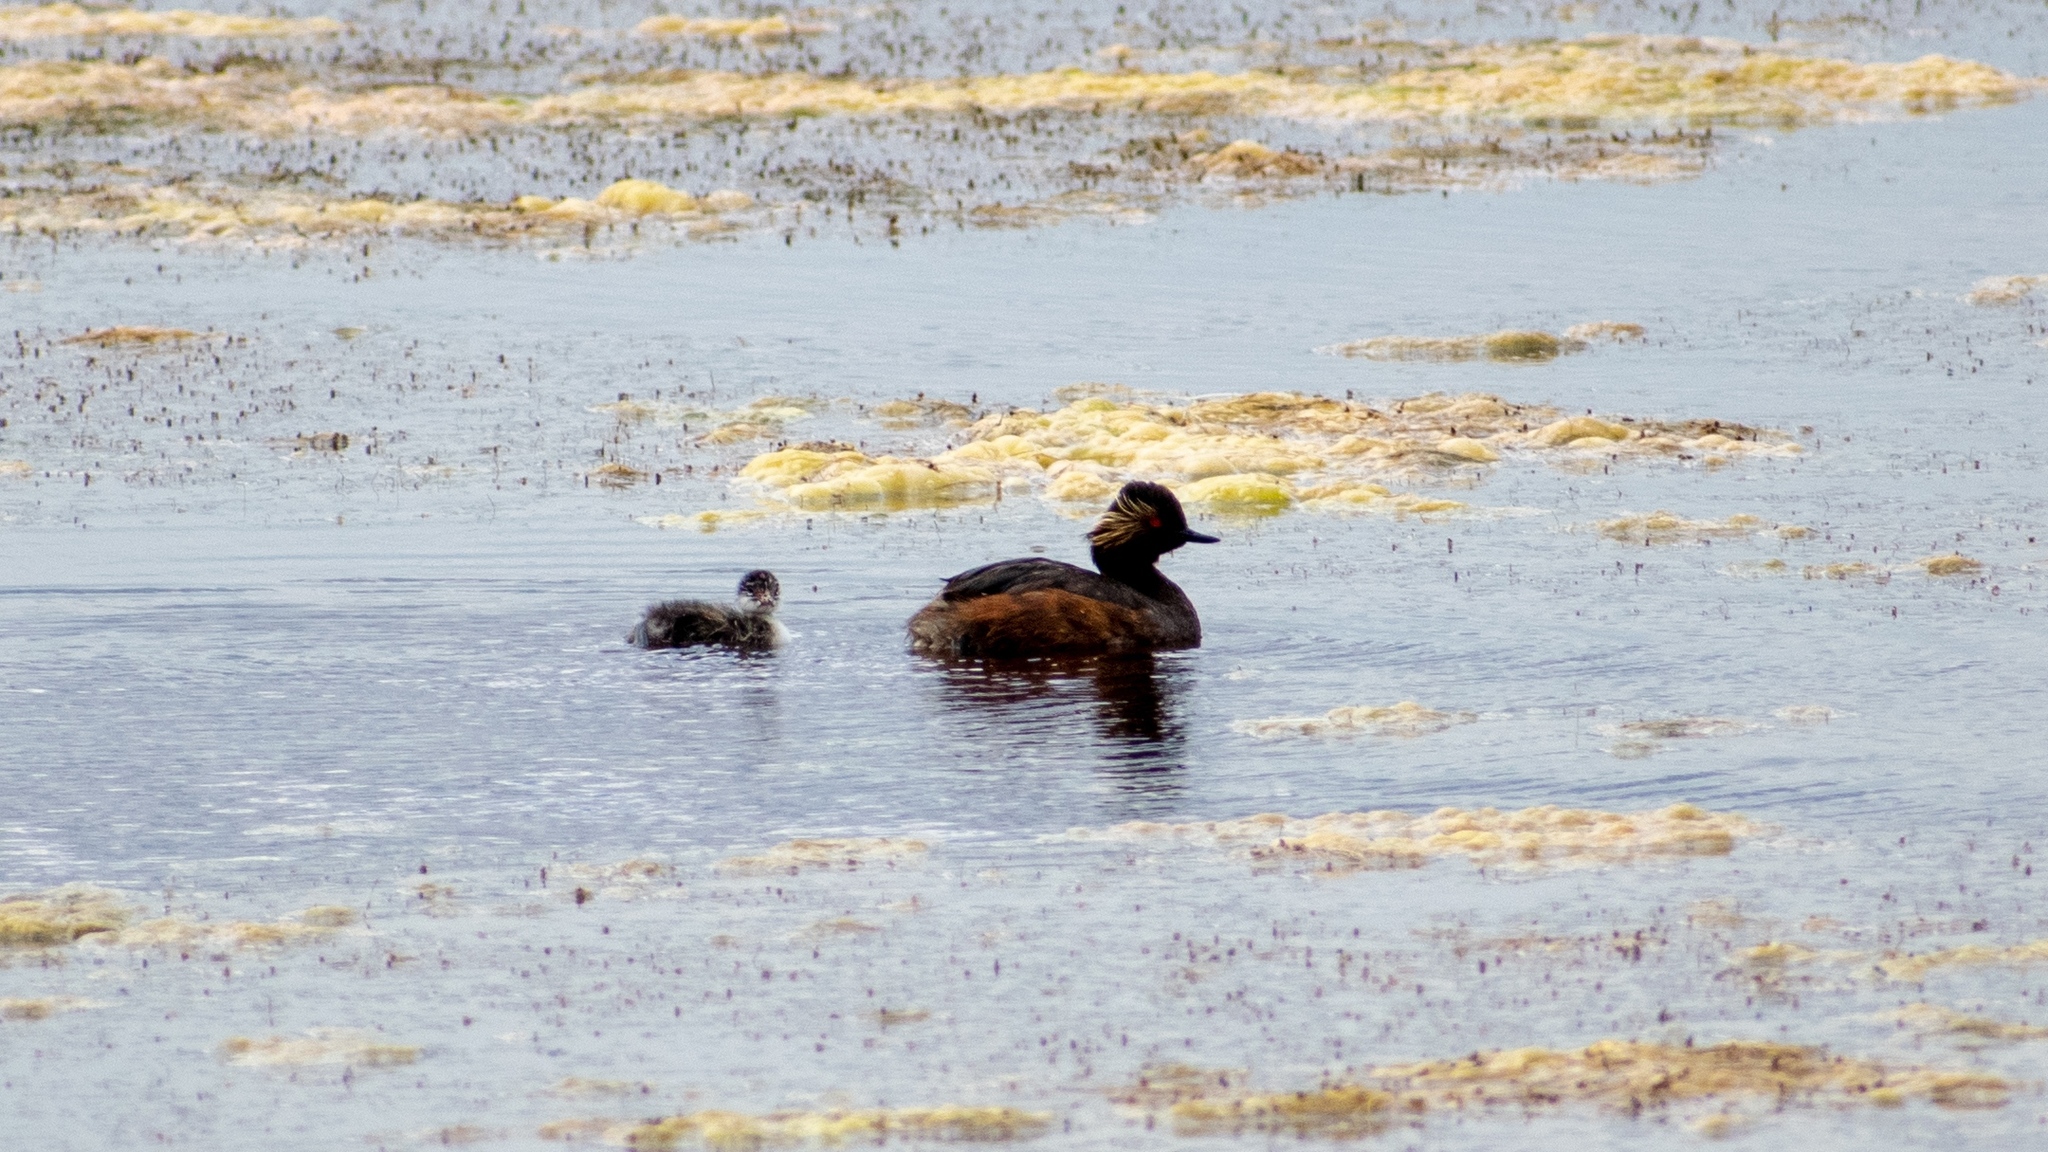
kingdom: Animalia
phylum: Chordata
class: Aves
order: Podicipediformes
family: Podicipedidae
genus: Podiceps
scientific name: Podiceps nigricollis
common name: Black-necked grebe
